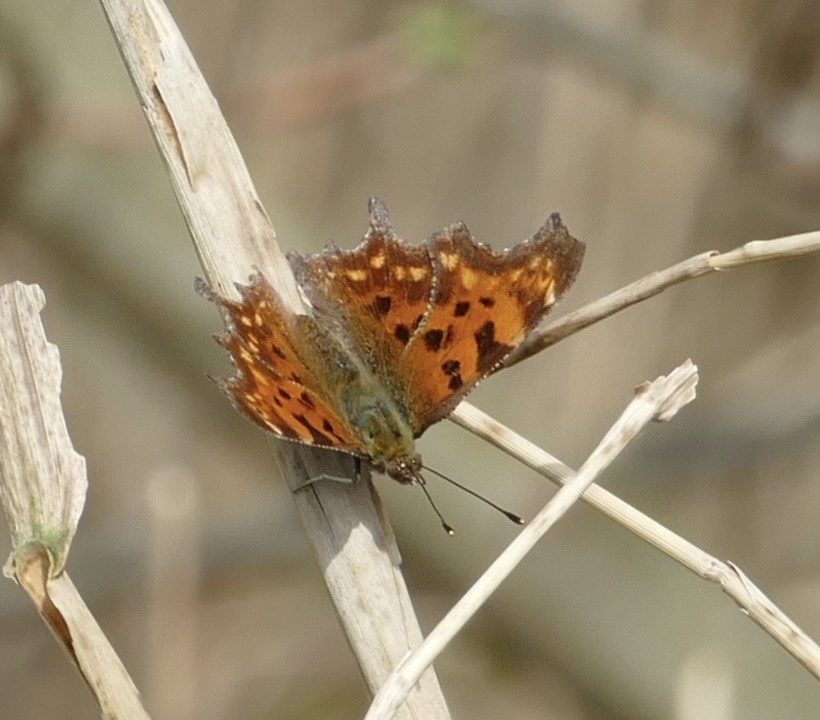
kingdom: Animalia
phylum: Arthropoda
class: Insecta
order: Lepidoptera
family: Nymphalidae
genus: Polygonia
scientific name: Polygonia c-album
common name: Comma
